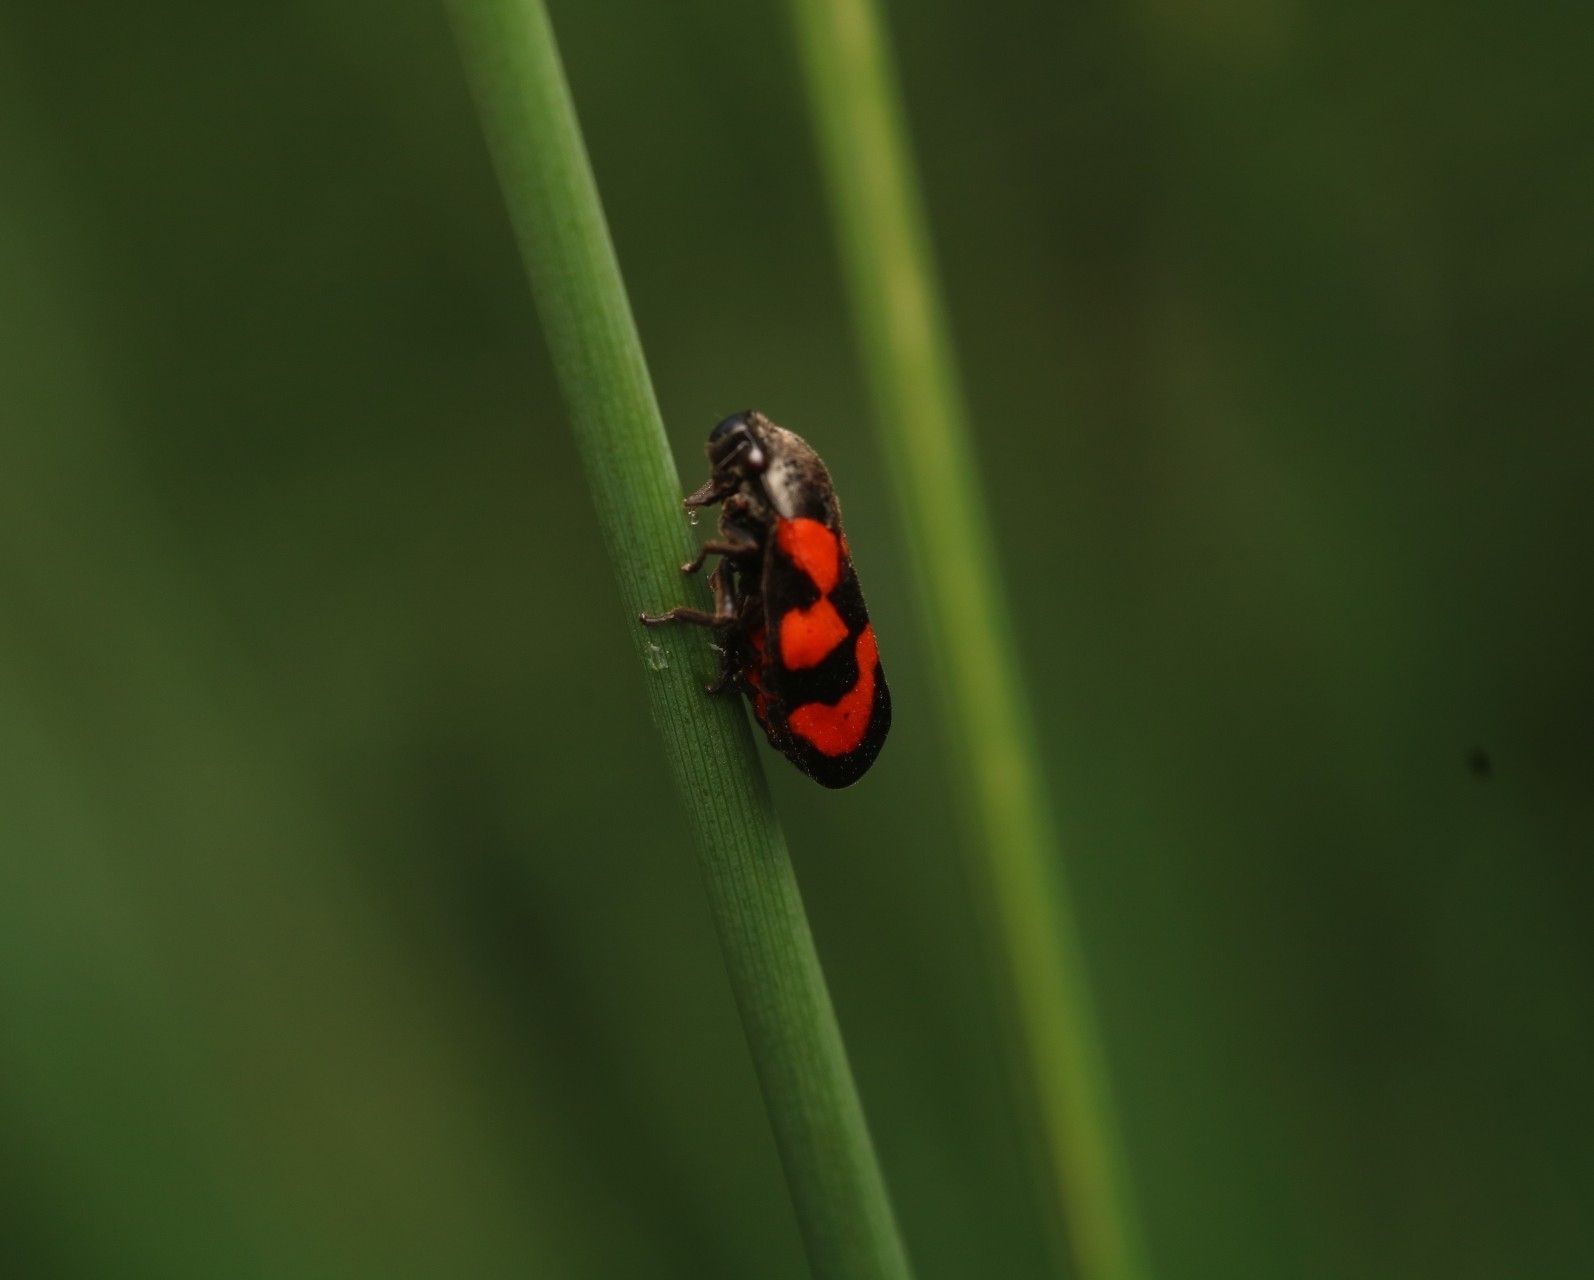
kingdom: Animalia
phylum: Arthropoda
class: Insecta
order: Hemiptera
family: Cercopidae
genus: Cercopis
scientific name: Cercopis vulnerata
